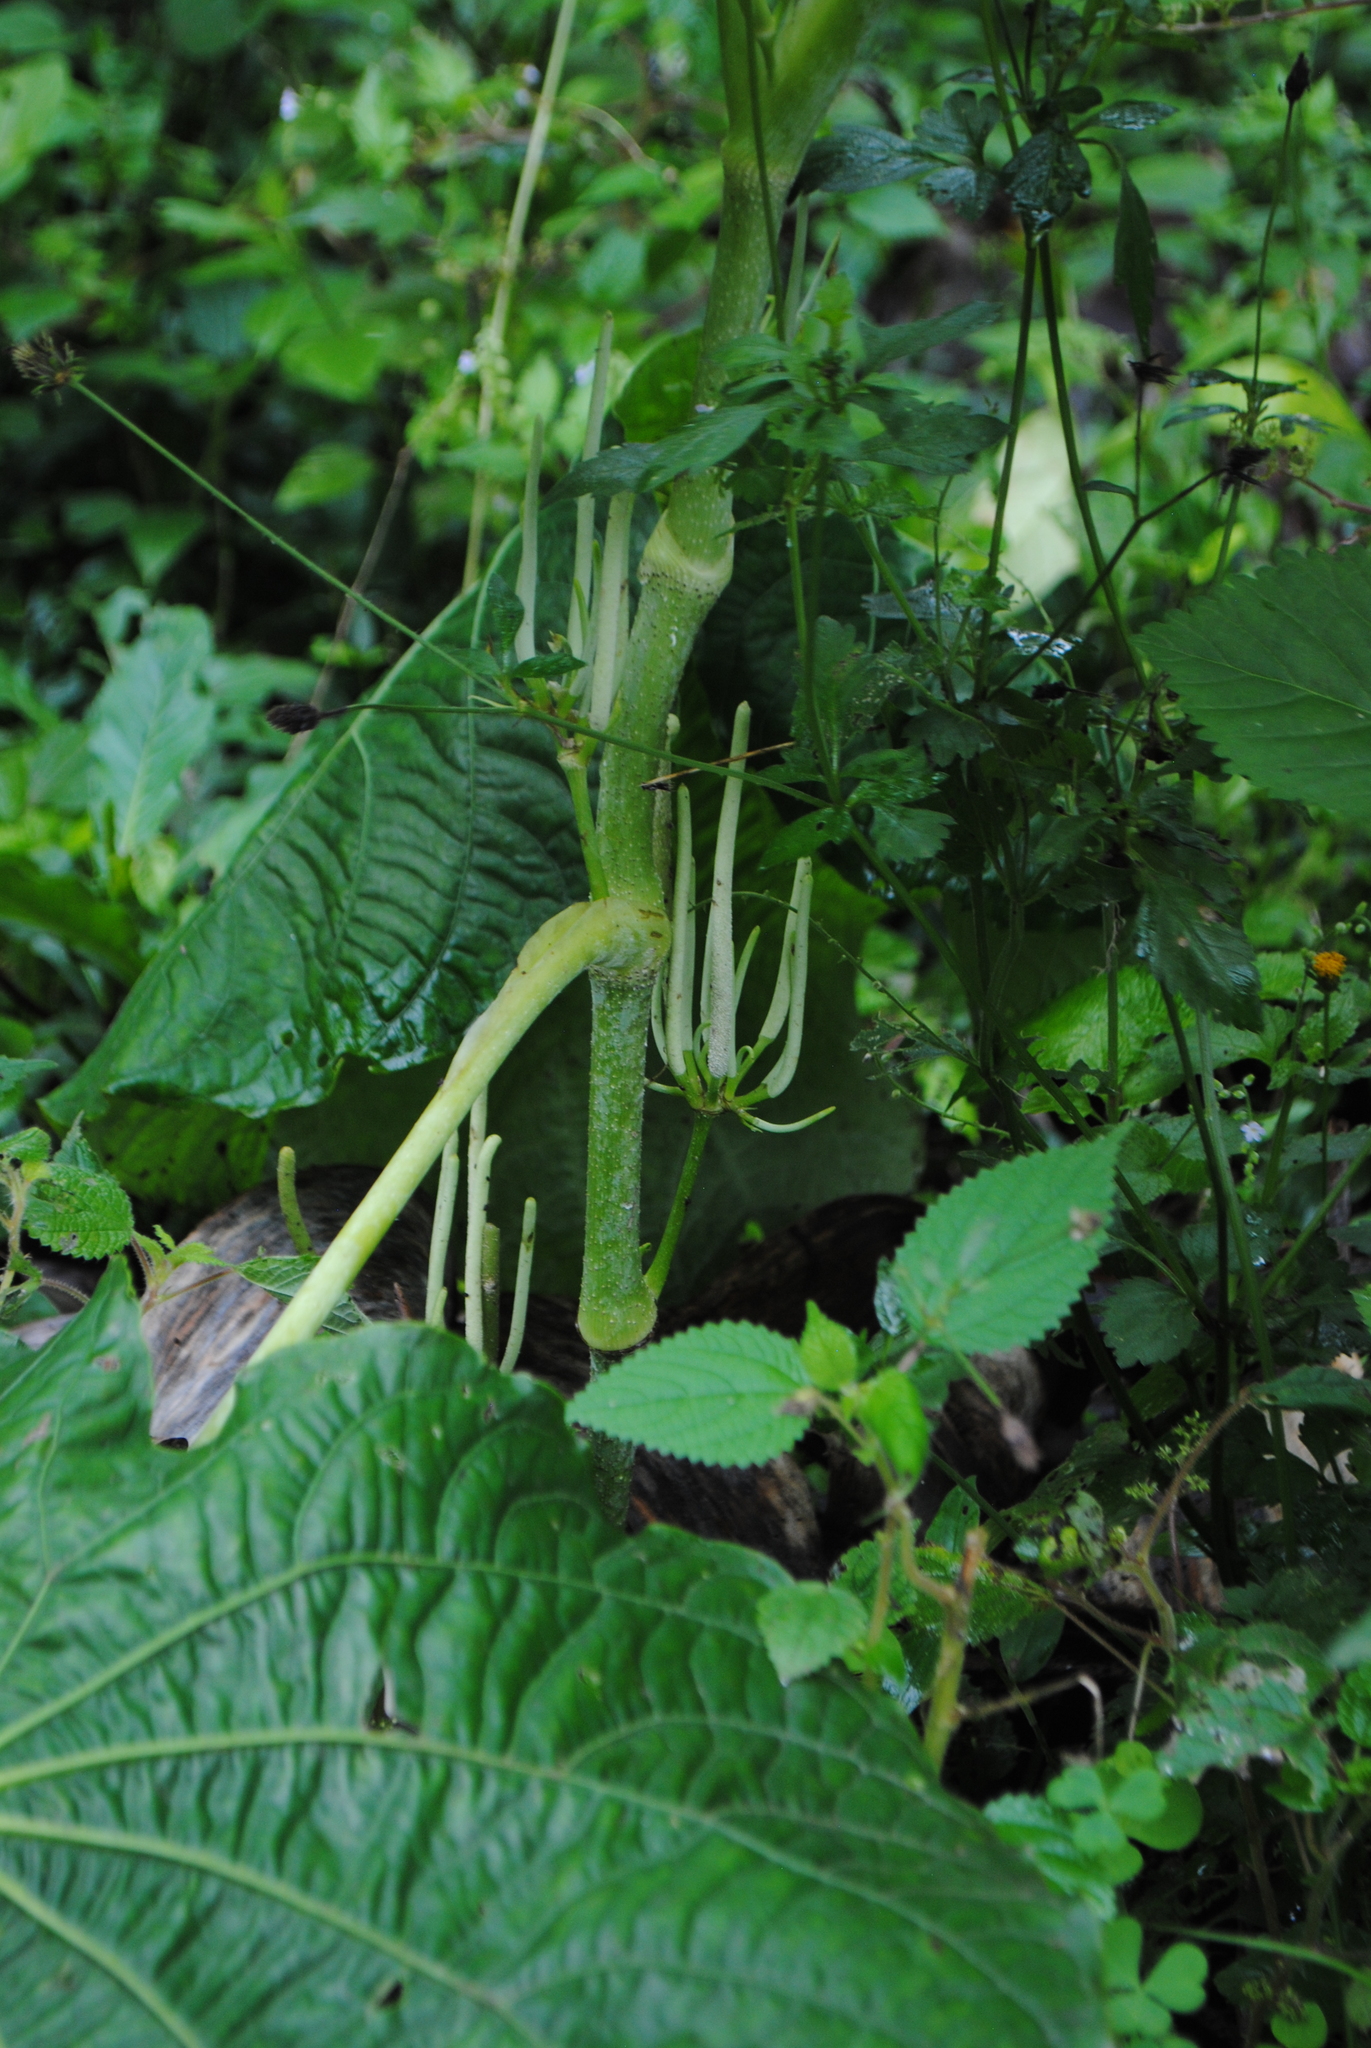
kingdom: Plantae
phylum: Tracheophyta
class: Magnoliopsida
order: Piperales
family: Piperaceae
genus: Piper
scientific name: Piper peltatum
